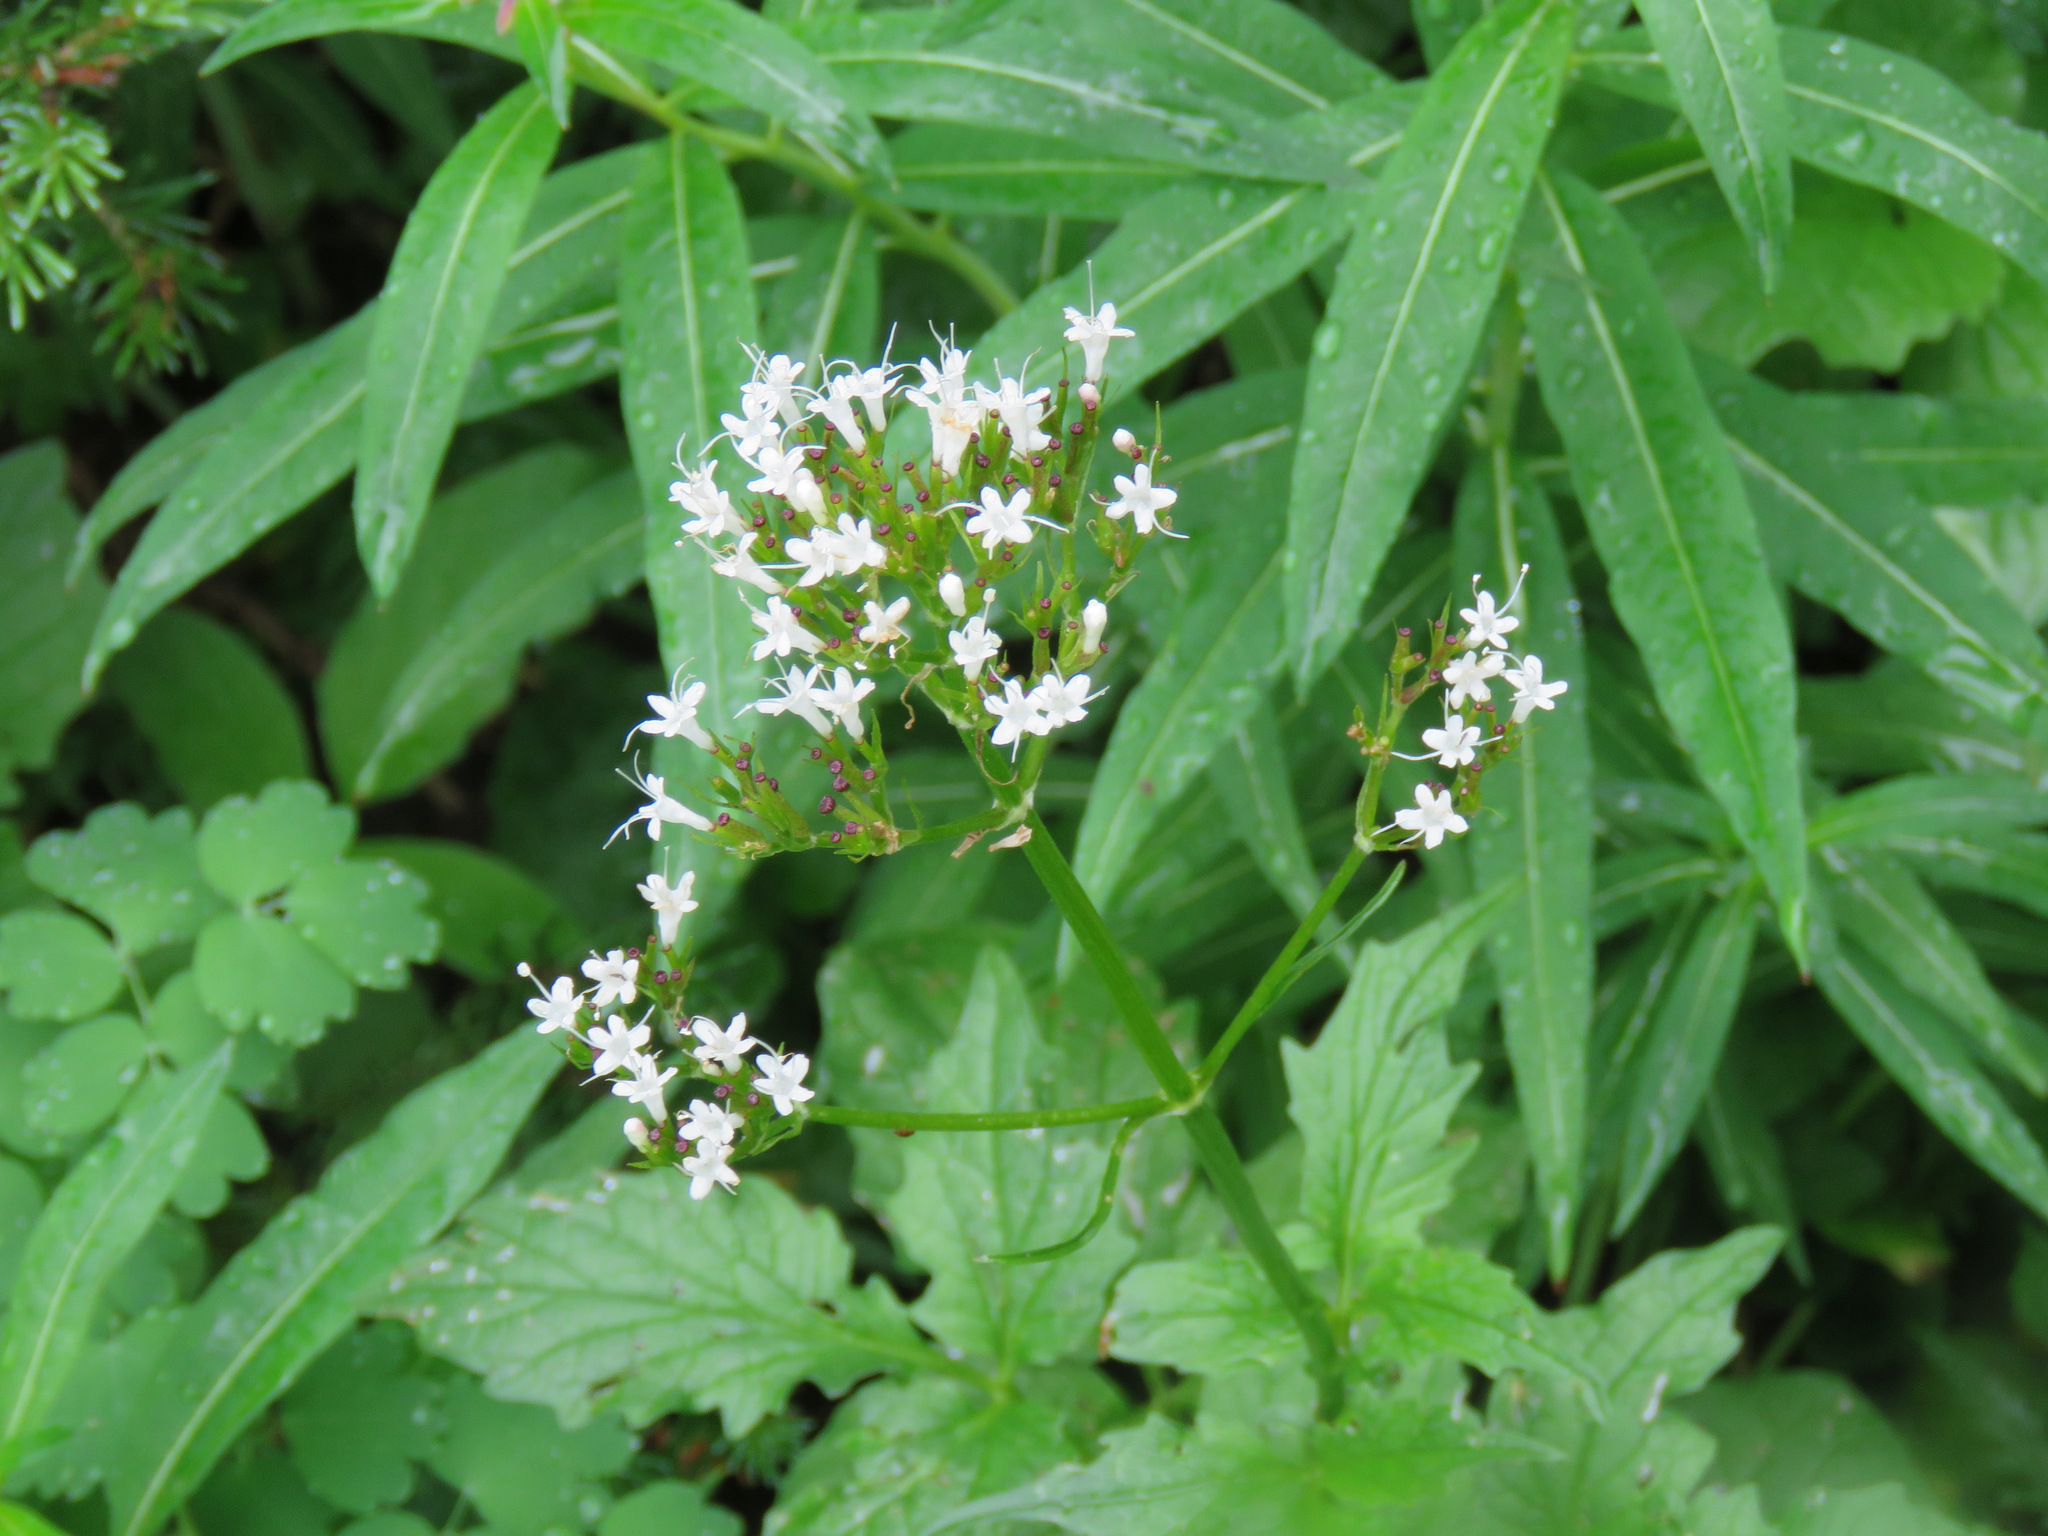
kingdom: Plantae
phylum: Tracheophyta
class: Magnoliopsida
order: Dipsacales
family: Caprifoliaceae
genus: Valeriana
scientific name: Valeriana sitchensis
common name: Pacific valerian
